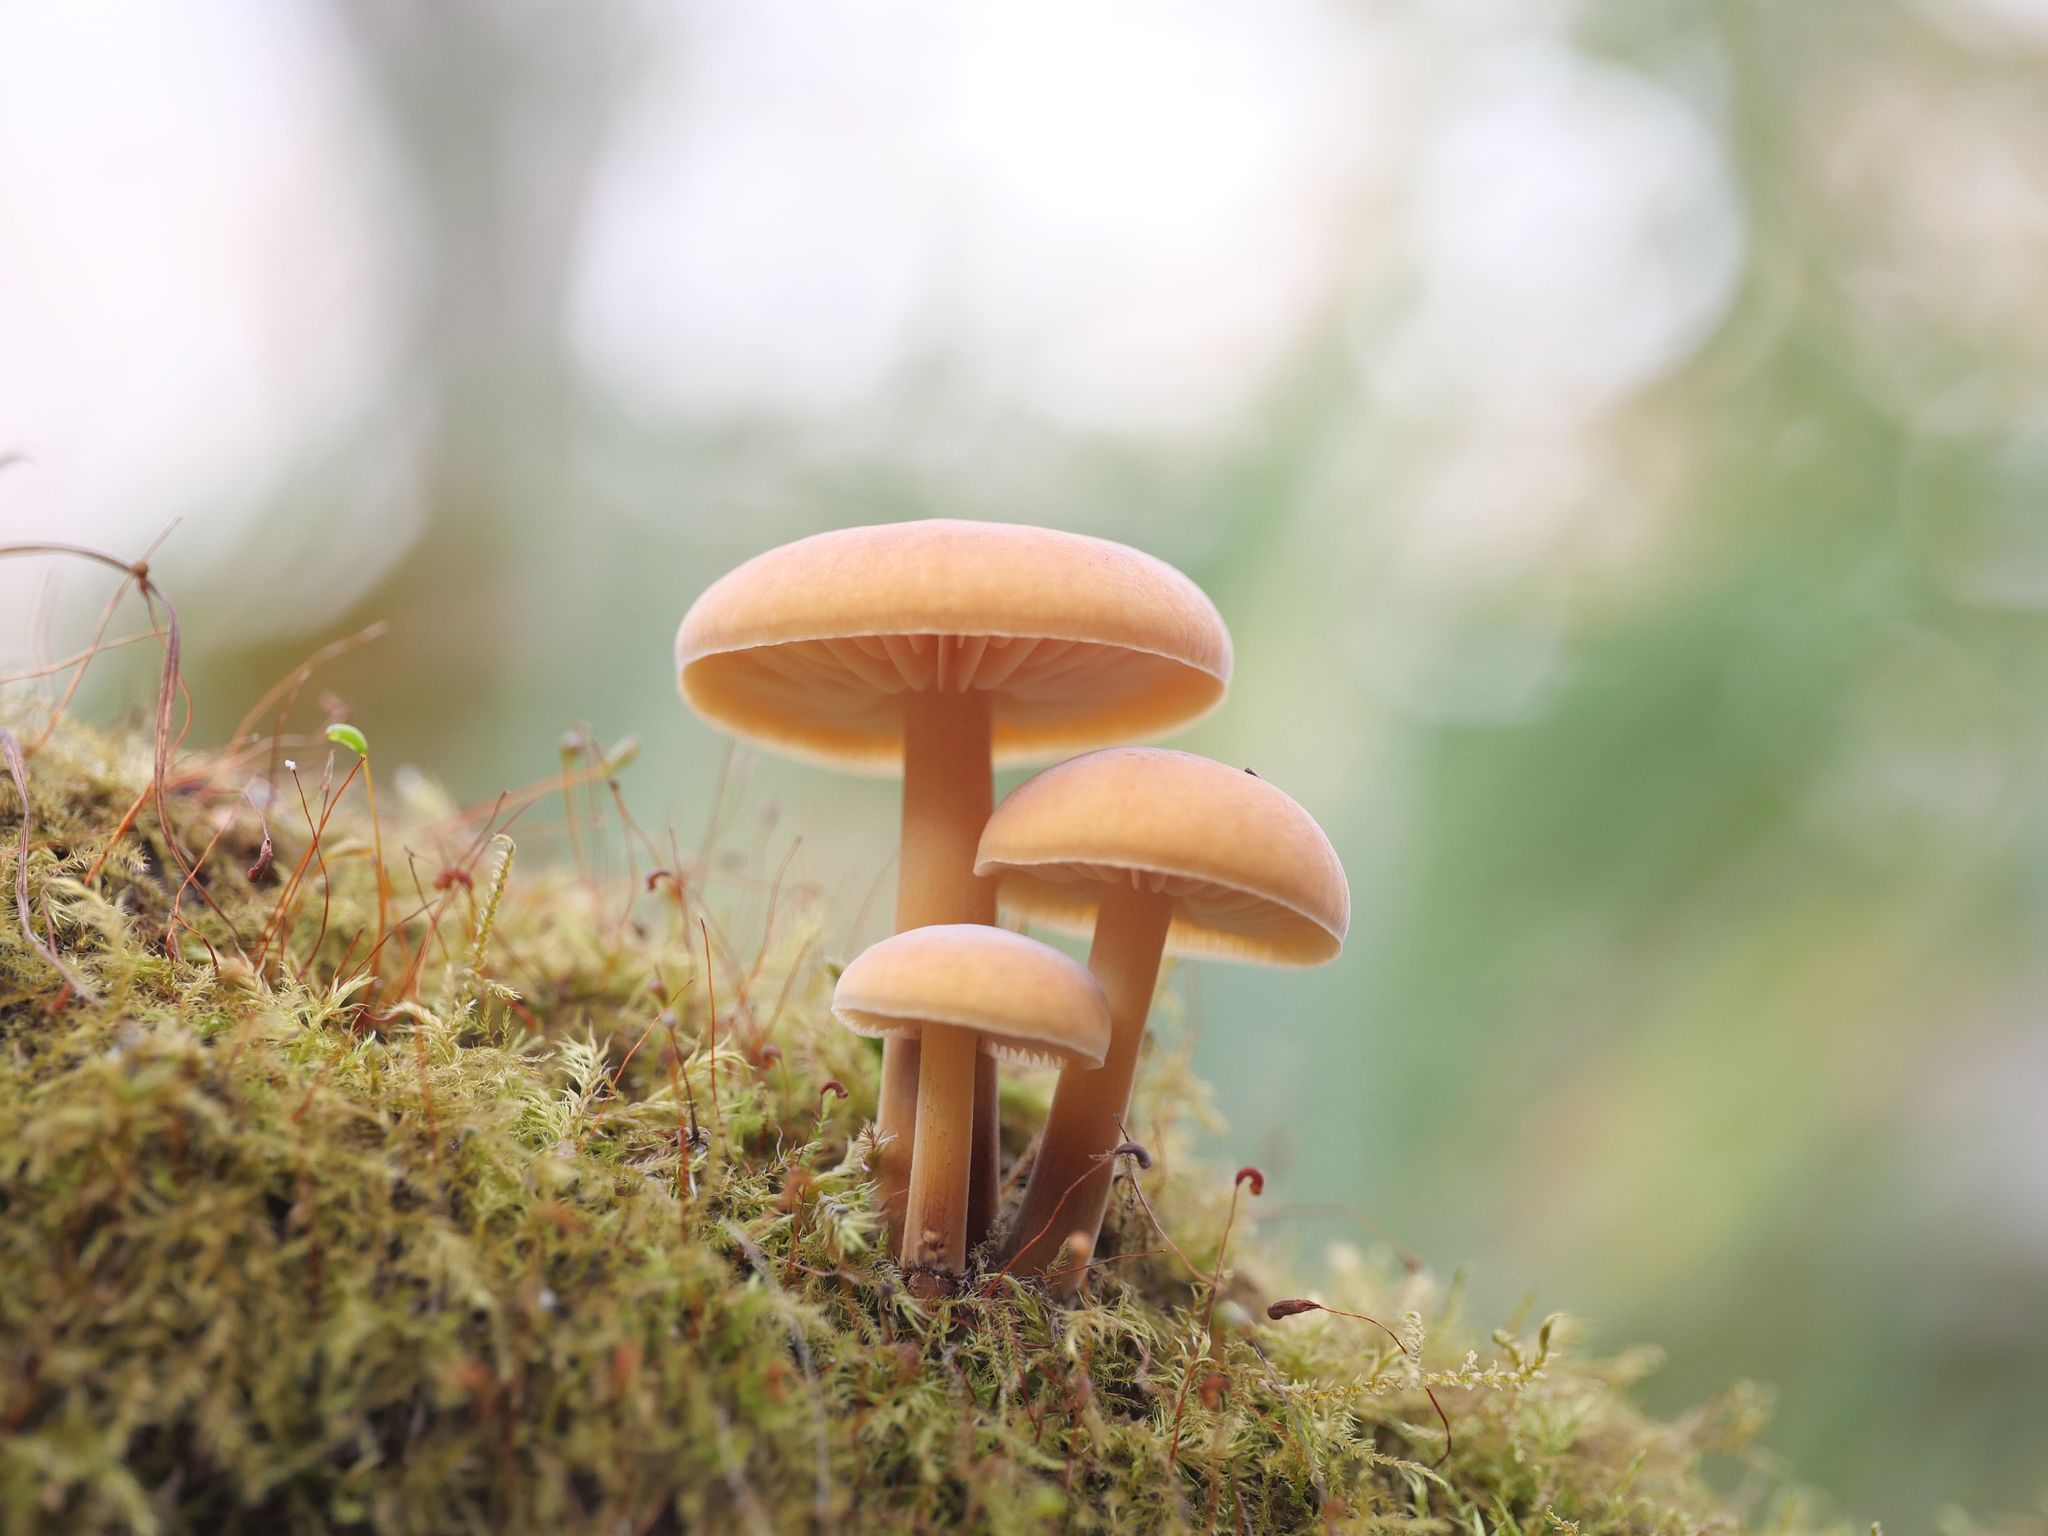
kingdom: Fungi
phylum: Basidiomycota
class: Agaricomycetes
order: Agaricales
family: Physalacriaceae
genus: Flammulina
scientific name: Flammulina
